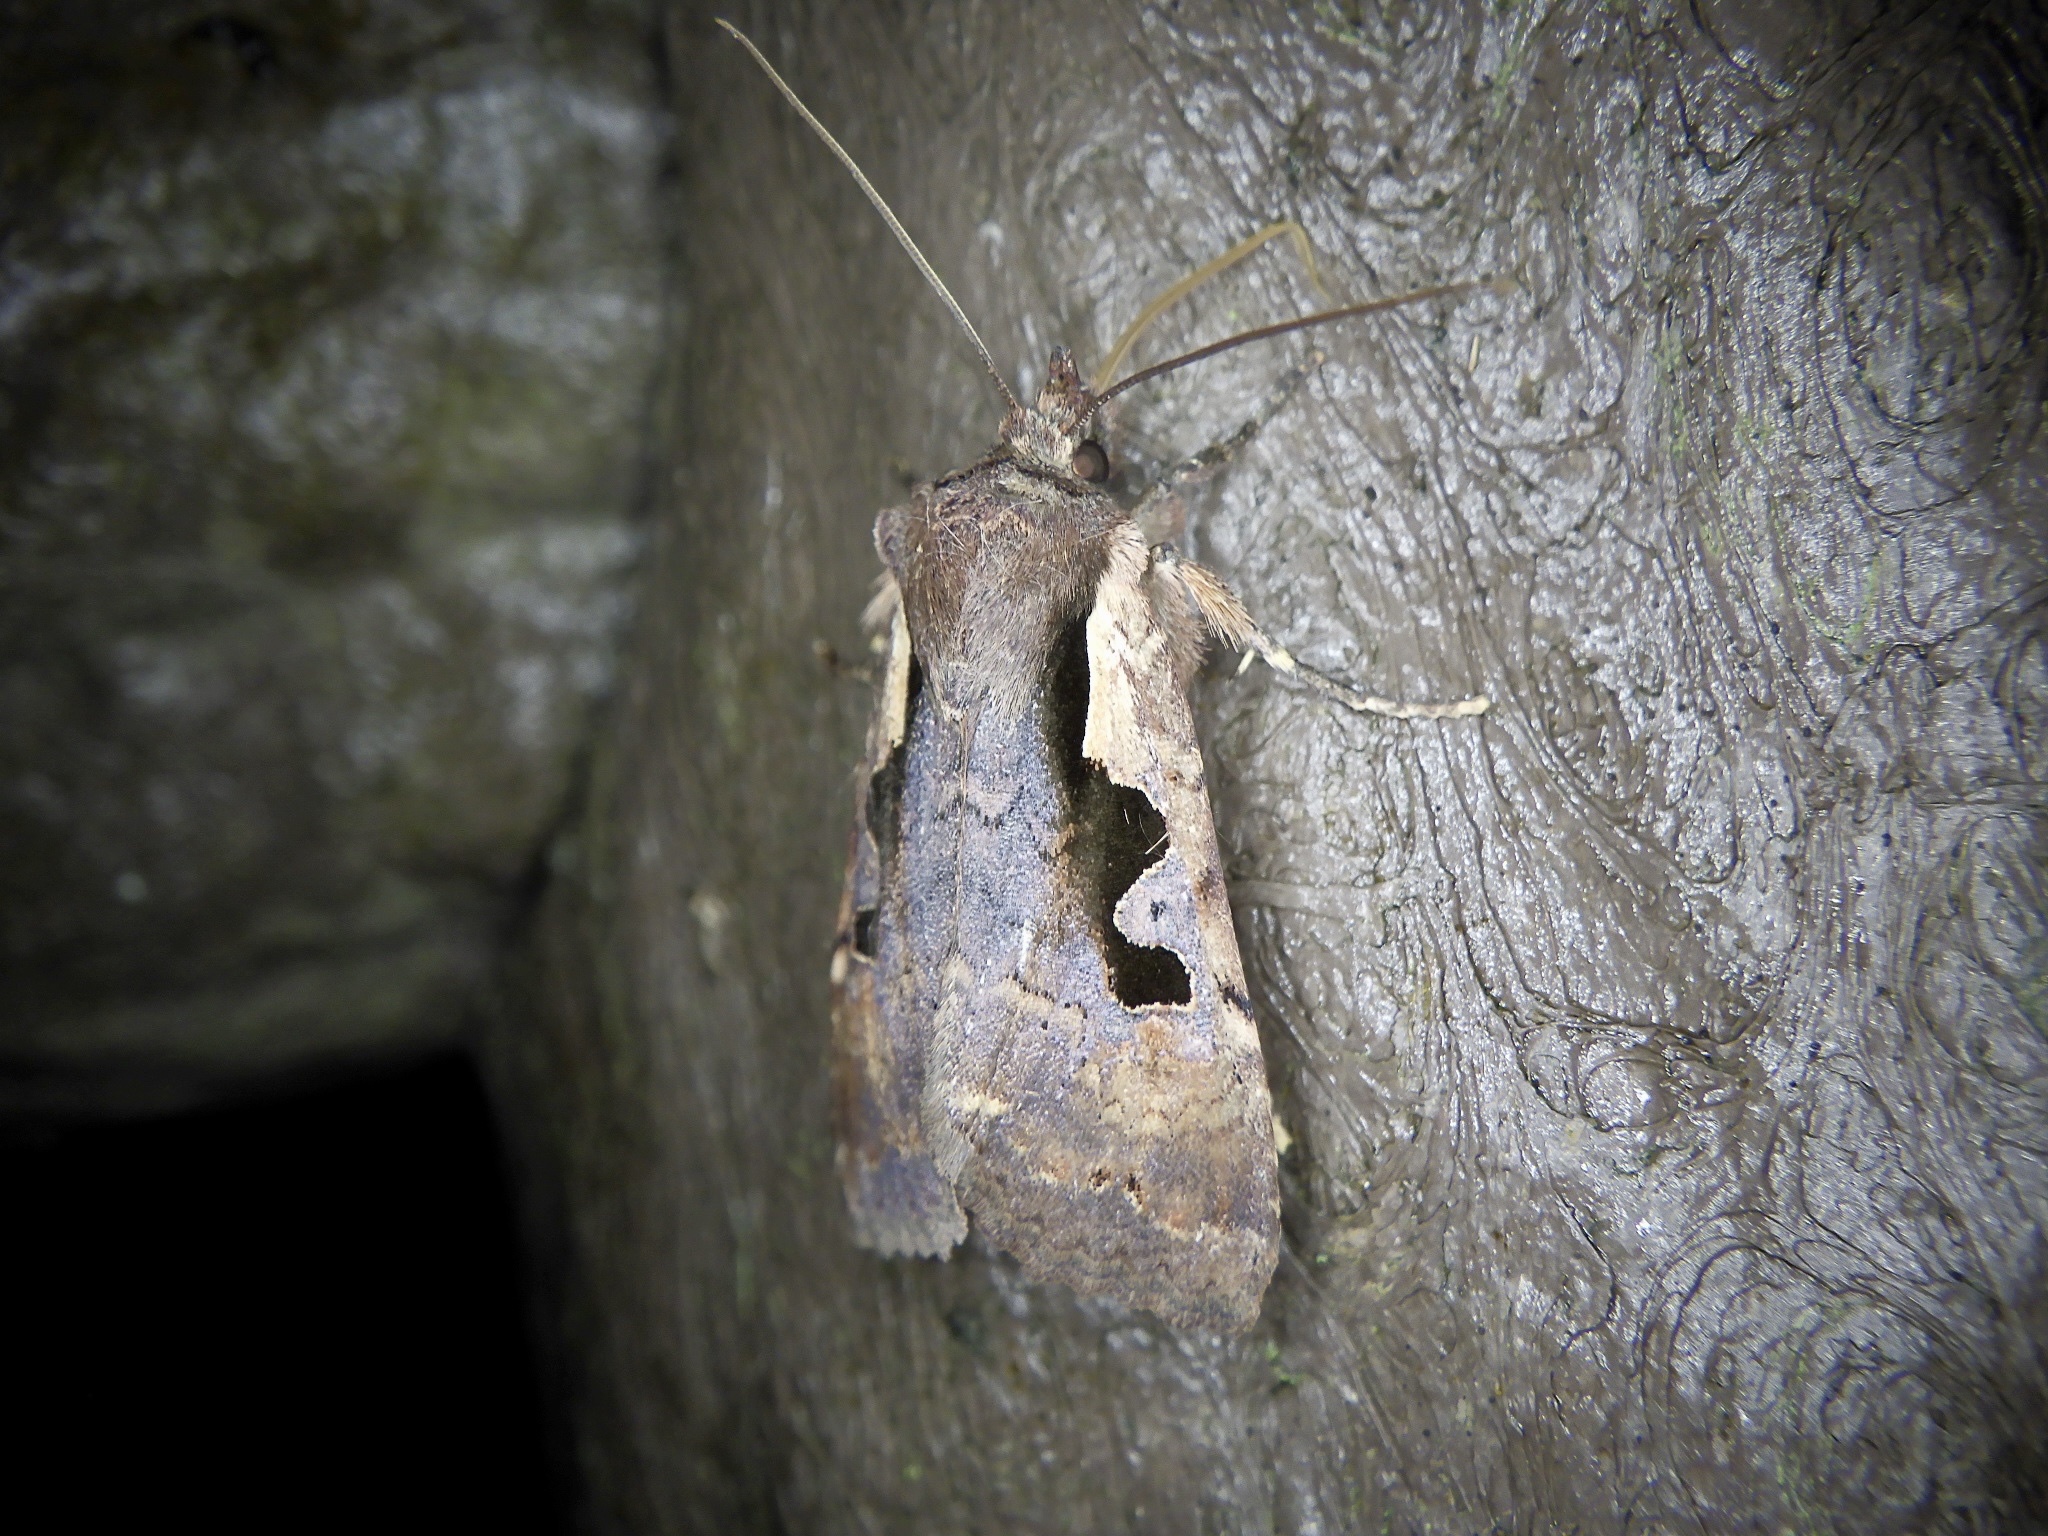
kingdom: Animalia
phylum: Arthropoda
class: Insecta
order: Lepidoptera
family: Noctuidae
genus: Sugitania
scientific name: Sugitania lepida
